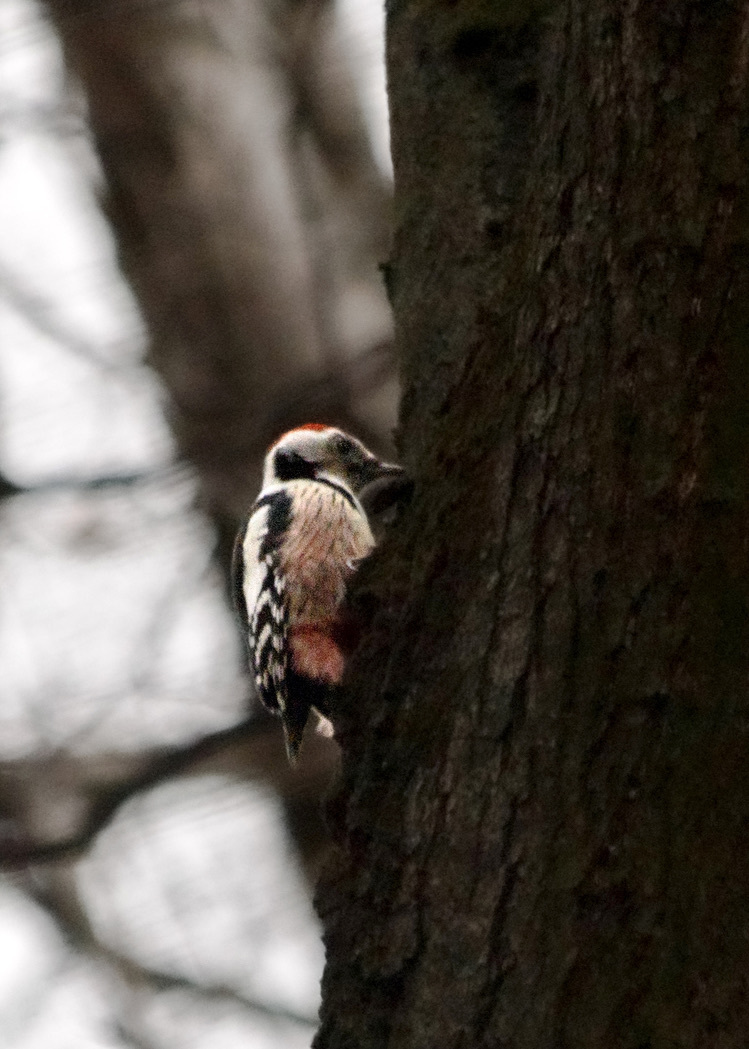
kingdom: Animalia
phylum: Chordata
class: Aves
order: Piciformes
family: Picidae
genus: Dendrocoptes
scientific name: Dendrocoptes medius
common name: Middle spotted woodpecker
